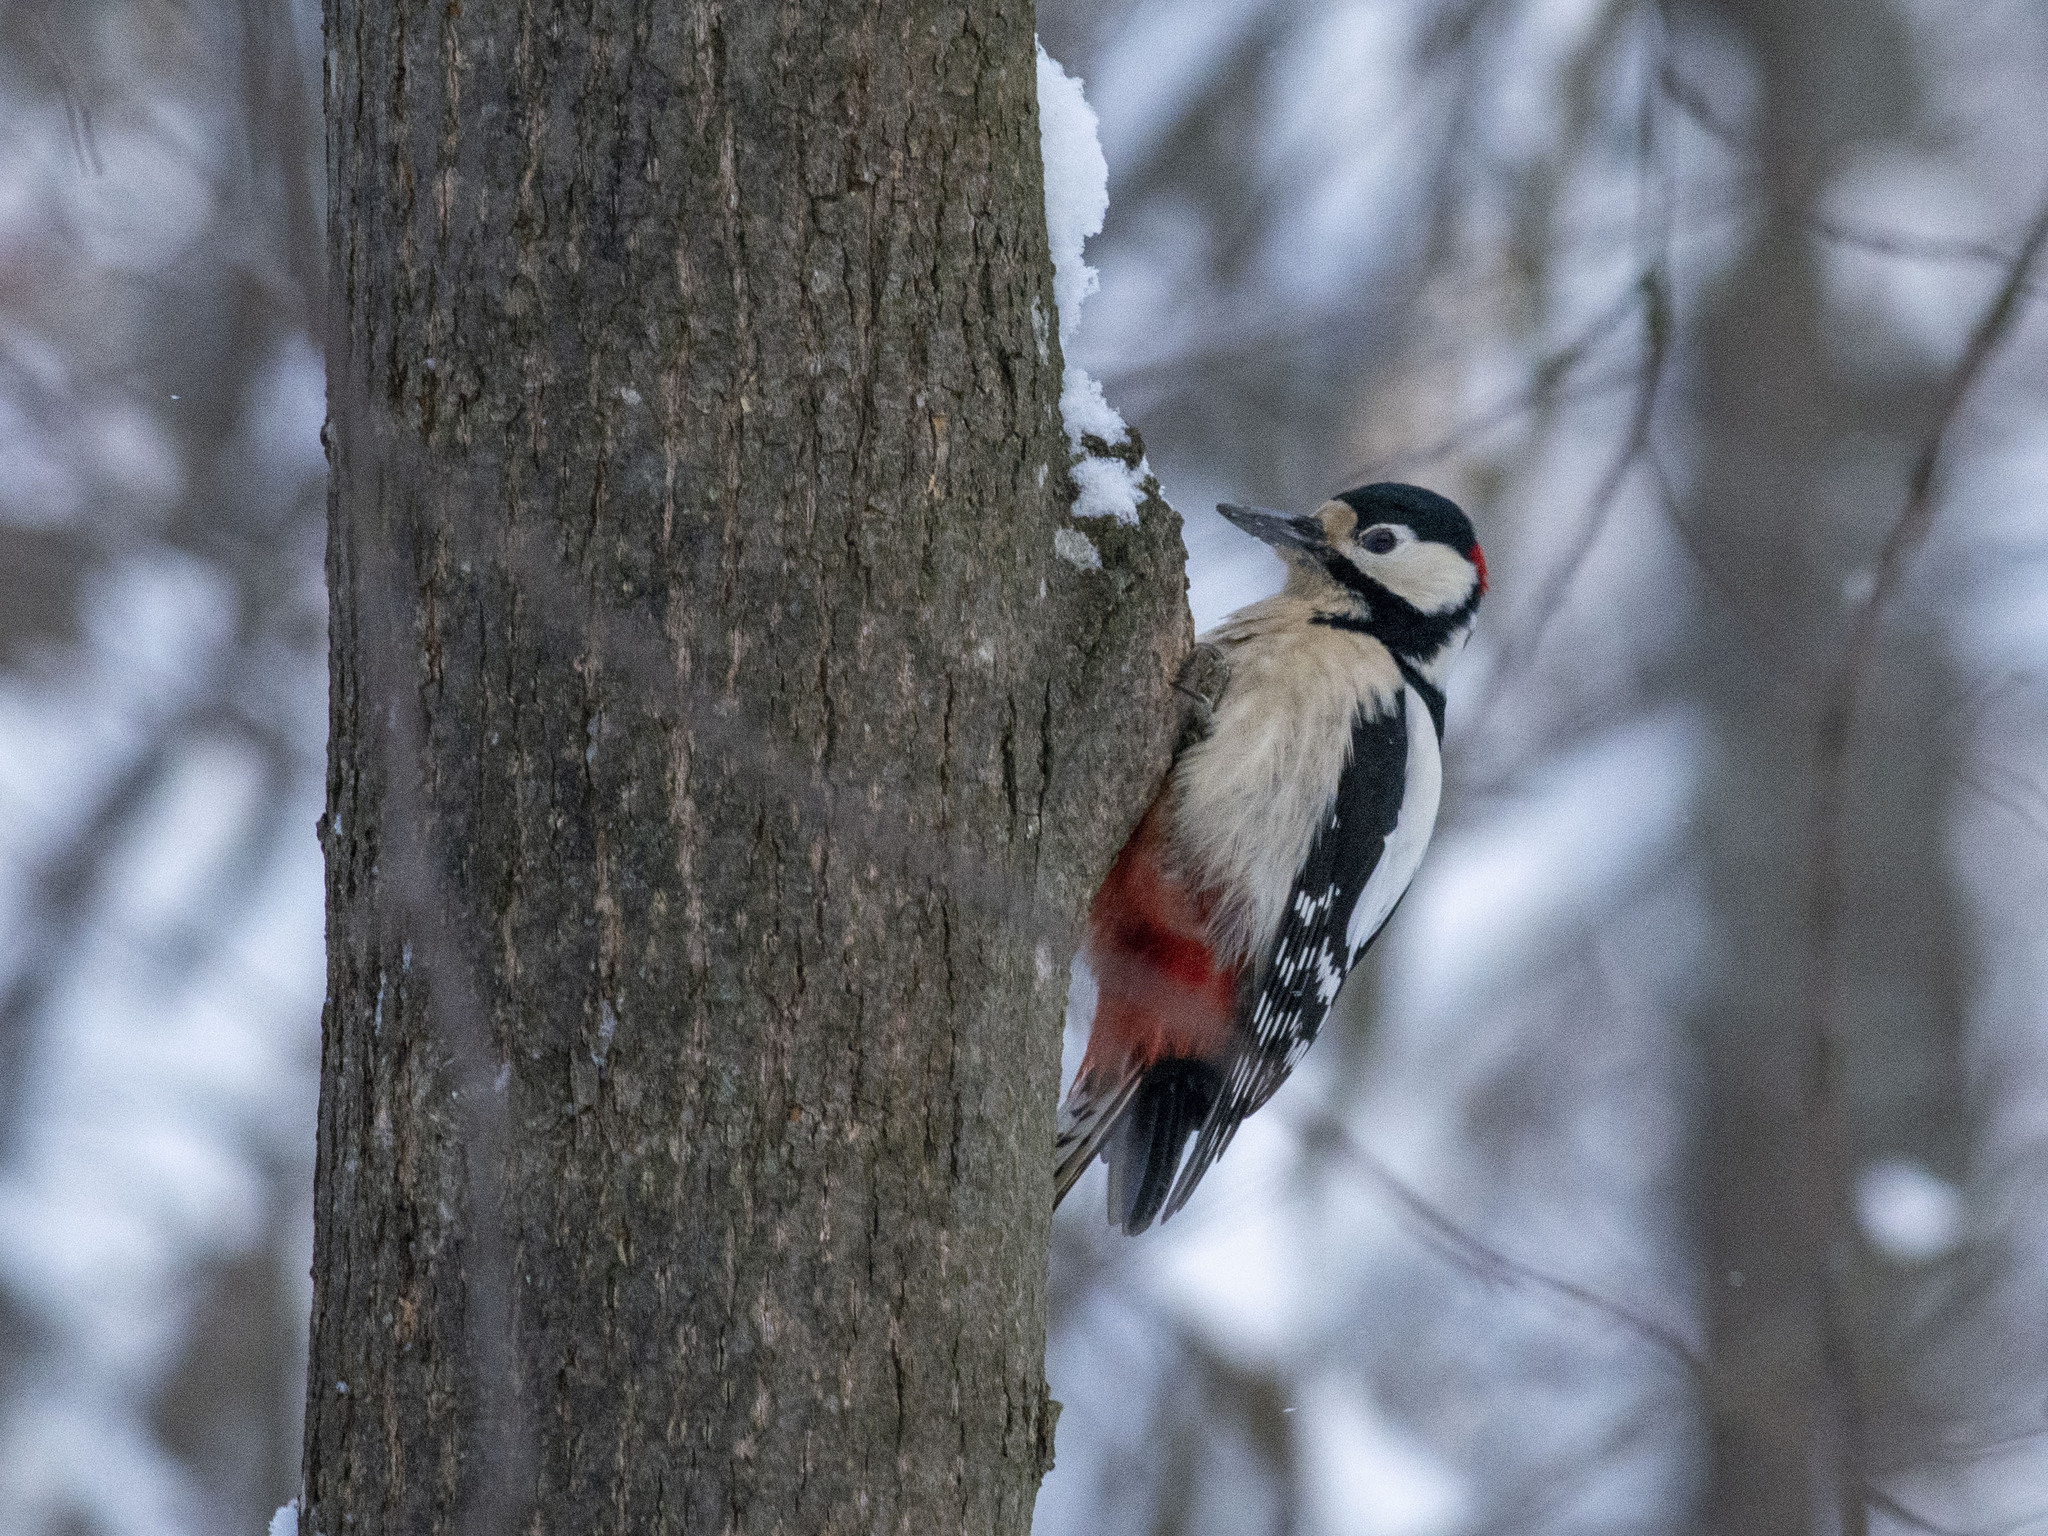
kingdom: Animalia
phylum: Chordata
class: Aves
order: Piciformes
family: Picidae
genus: Dendrocopos
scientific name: Dendrocopos major
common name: Great spotted woodpecker
